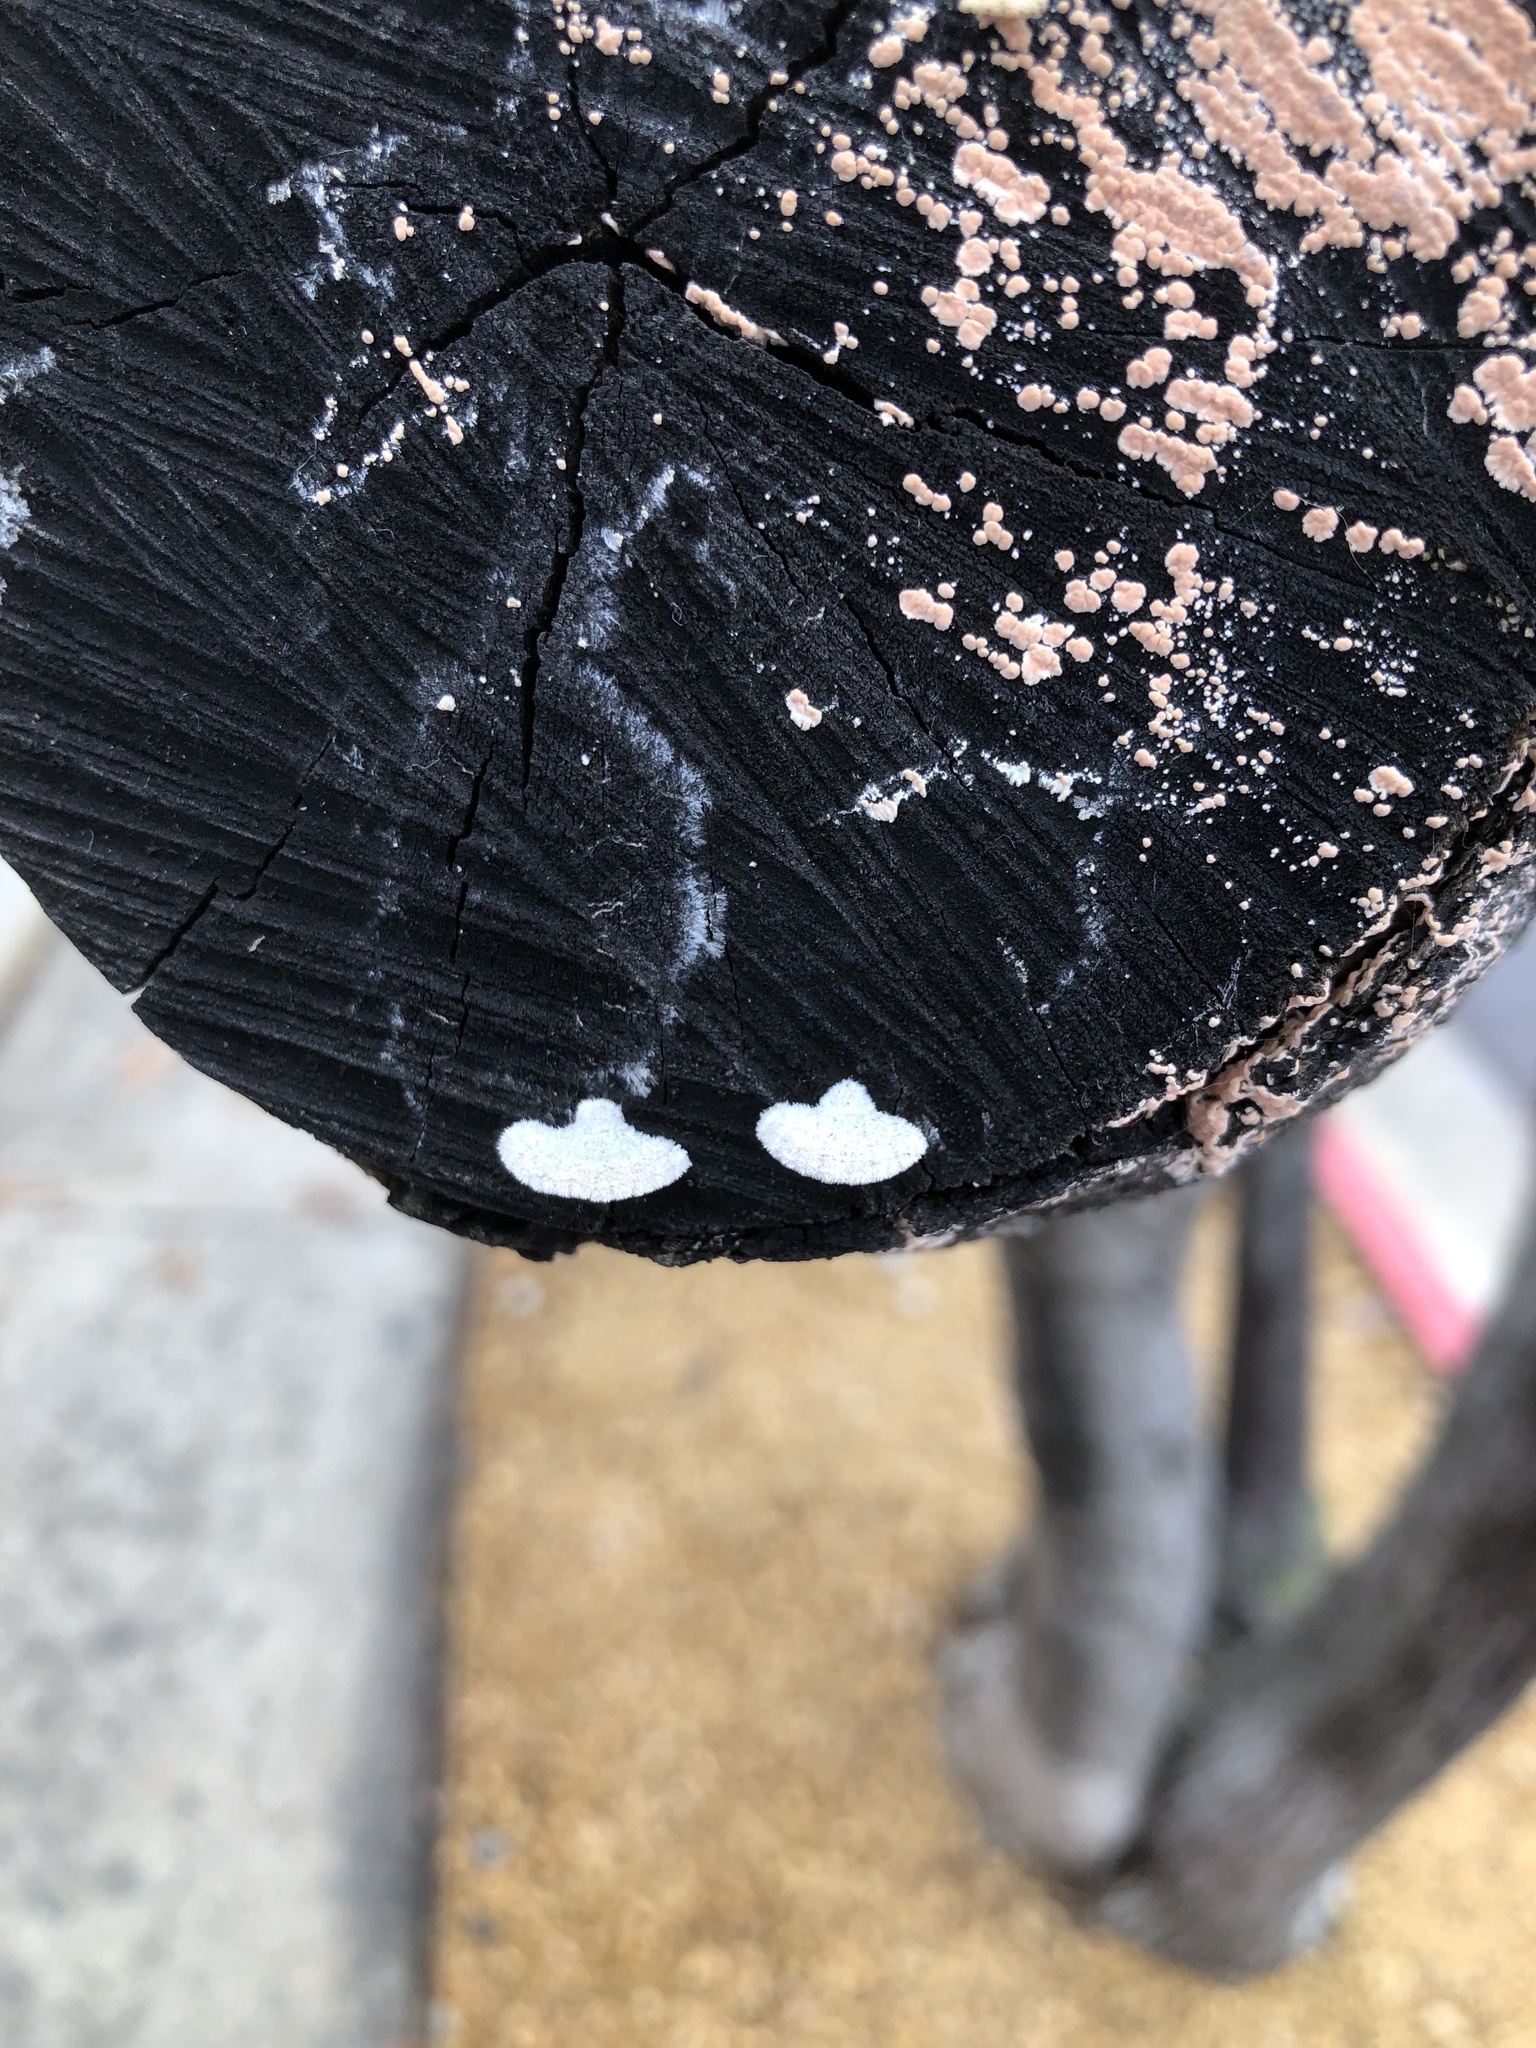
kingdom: Fungi
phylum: Basidiomycota
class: Agaricomycetes
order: Agaricales
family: Schizophyllaceae
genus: Schizophyllum
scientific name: Schizophyllum commune
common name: Common porecrust
